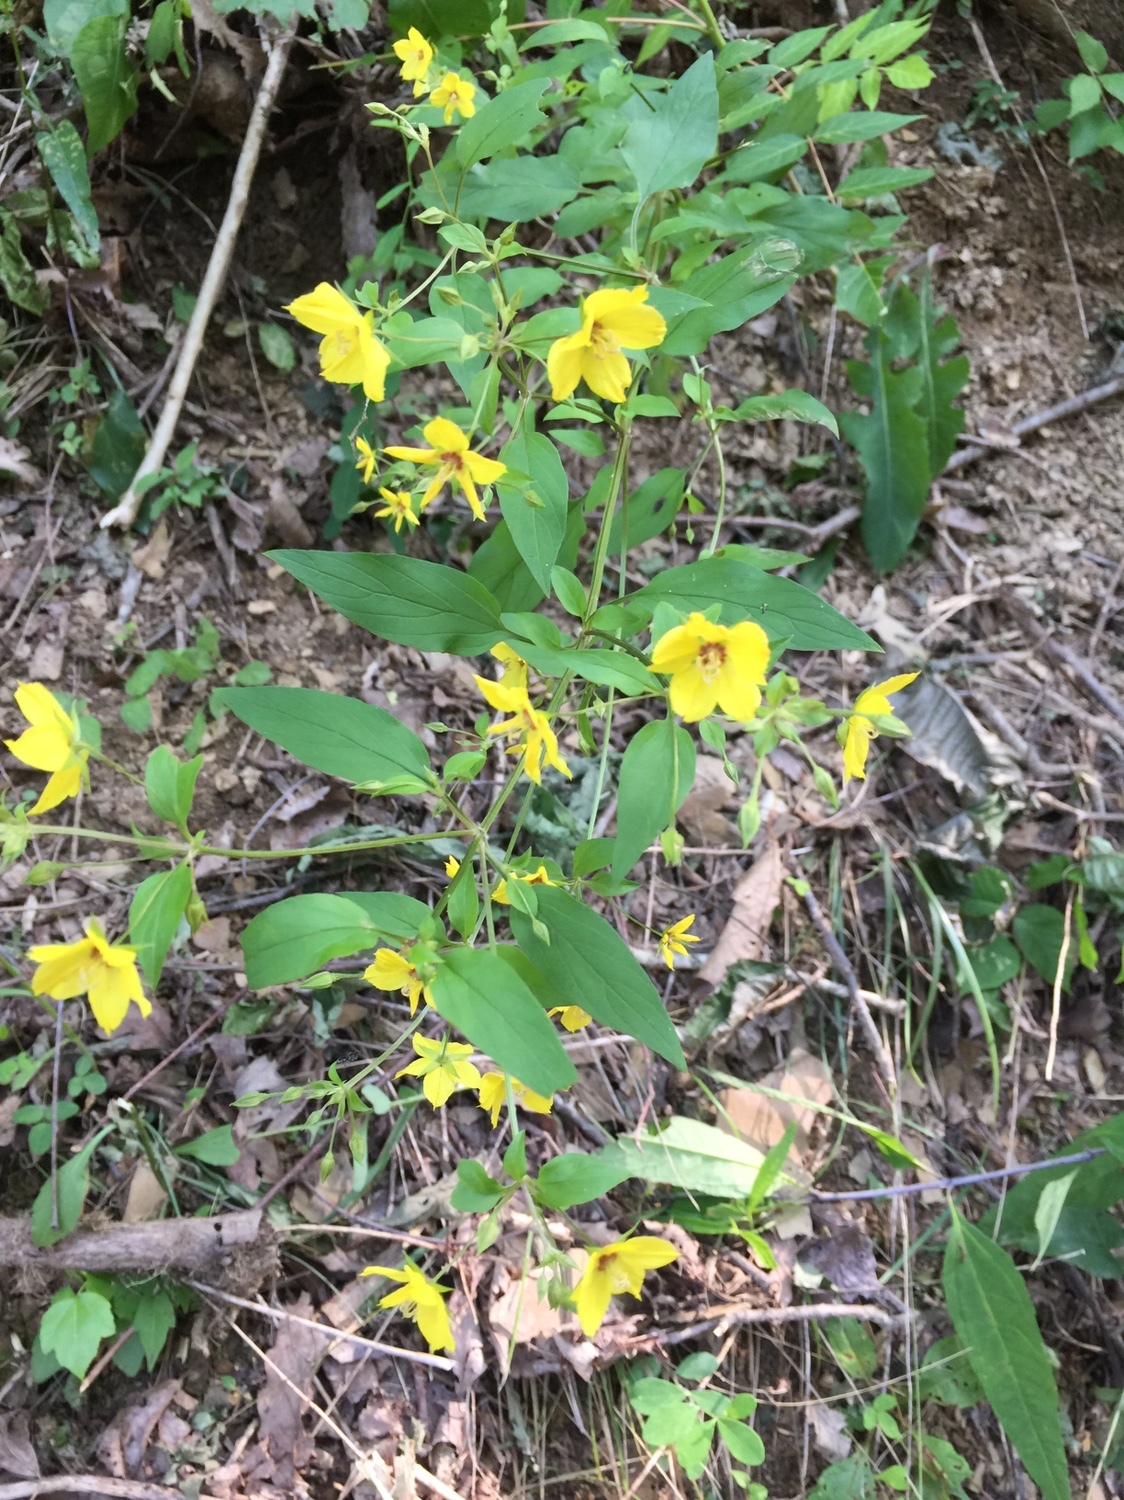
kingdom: Plantae
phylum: Tracheophyta
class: Magnoliopsida
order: Ericales
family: Primulaceae
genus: Lysimachia
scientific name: Lysimachia ciliata
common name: Fringed loosestrife
